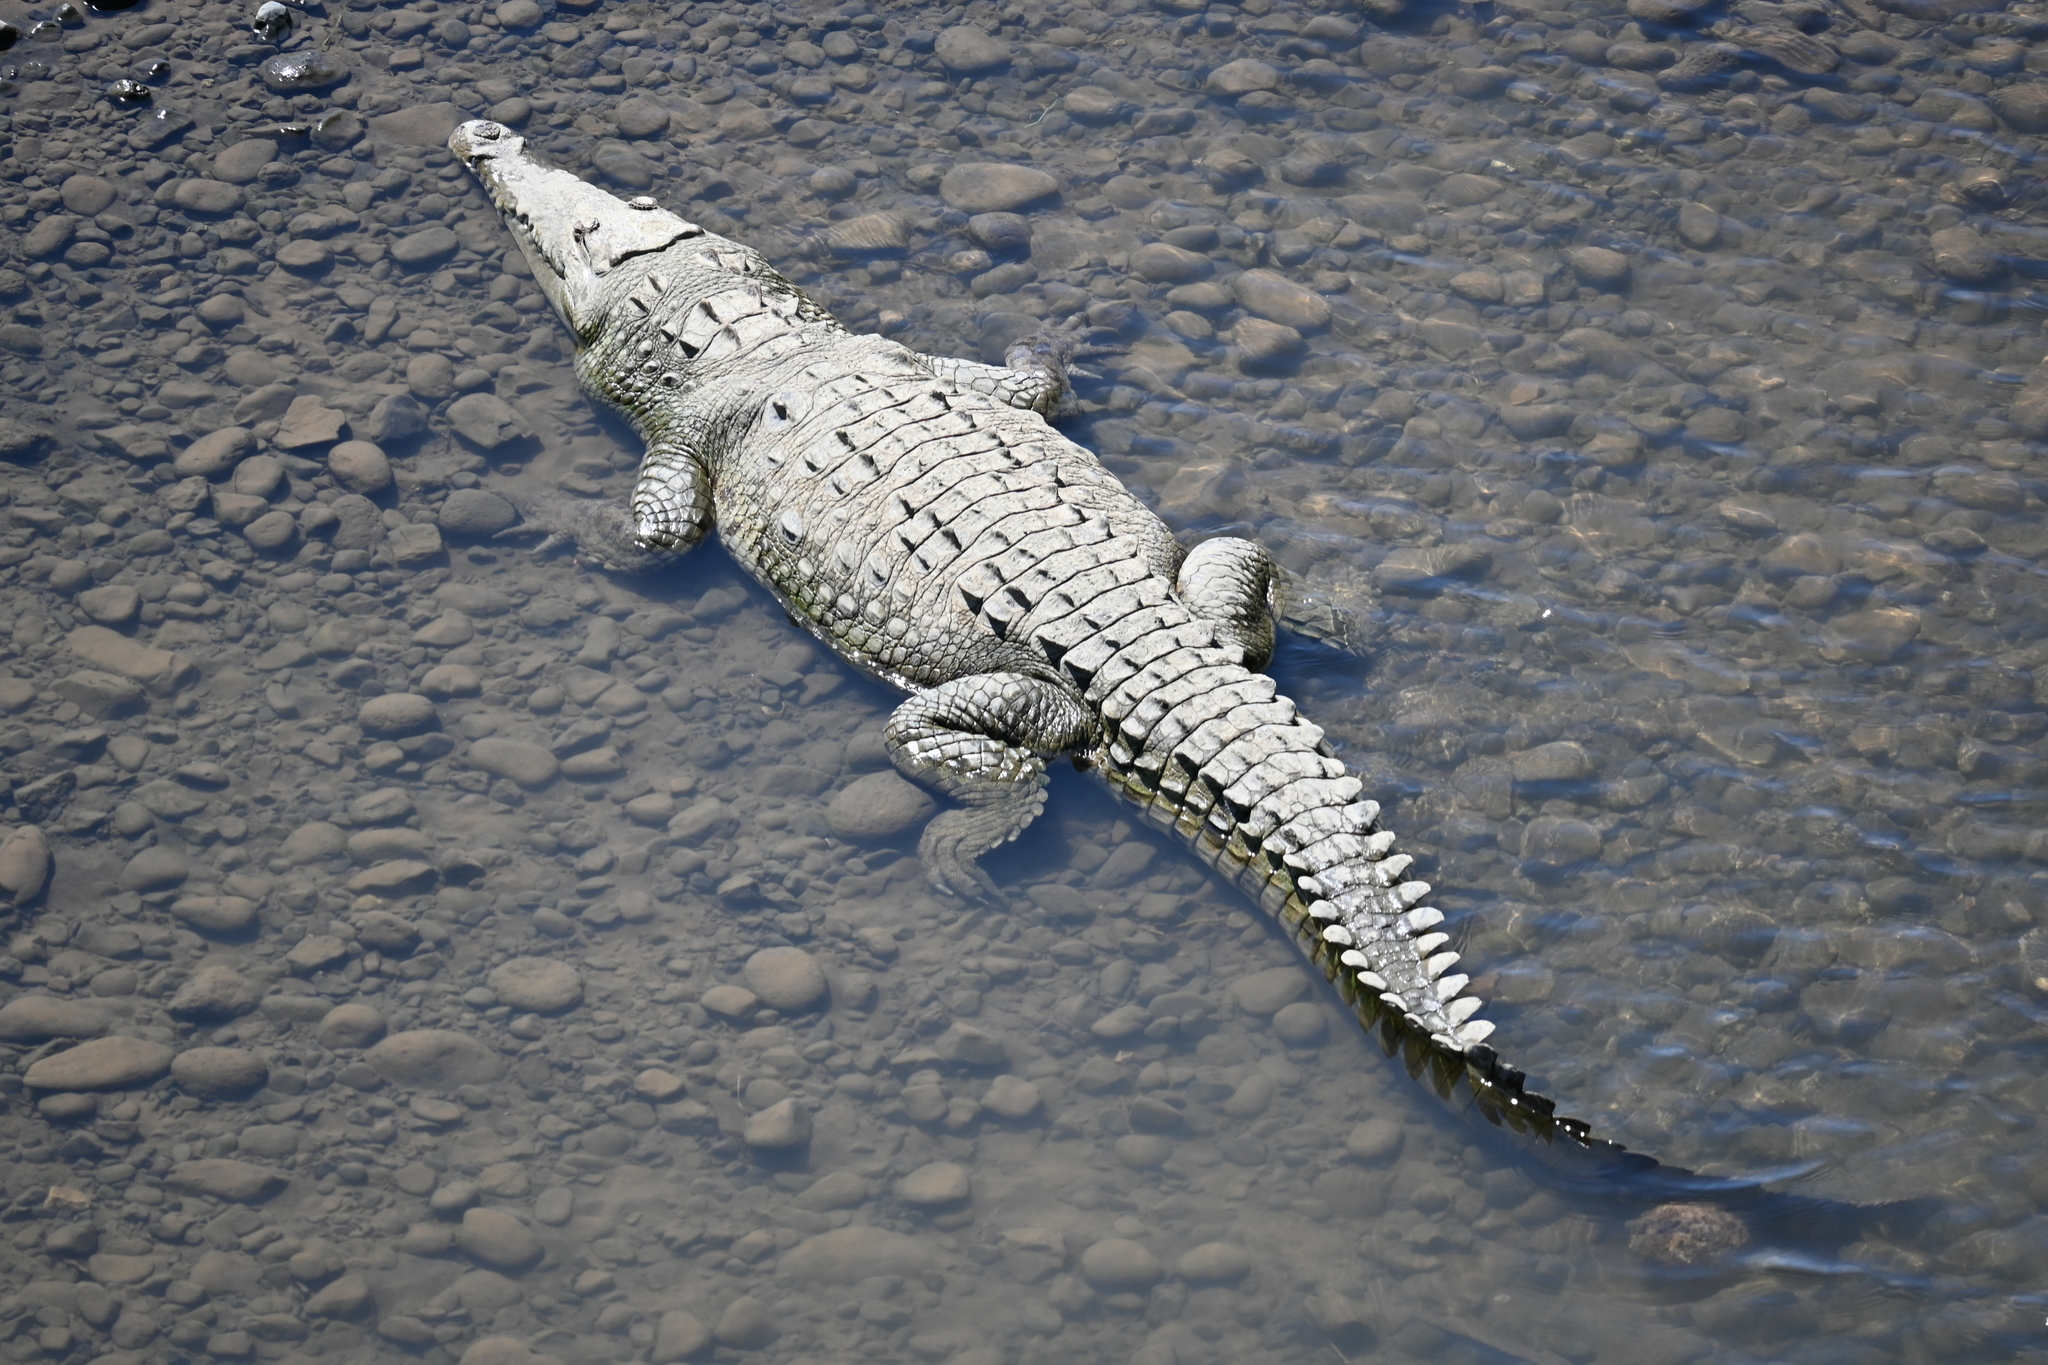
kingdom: Animalia
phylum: Chordata
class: Crocodylia
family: Crocodylidae
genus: Crocodylus
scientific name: Crocodylus acutus
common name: American crocodile
